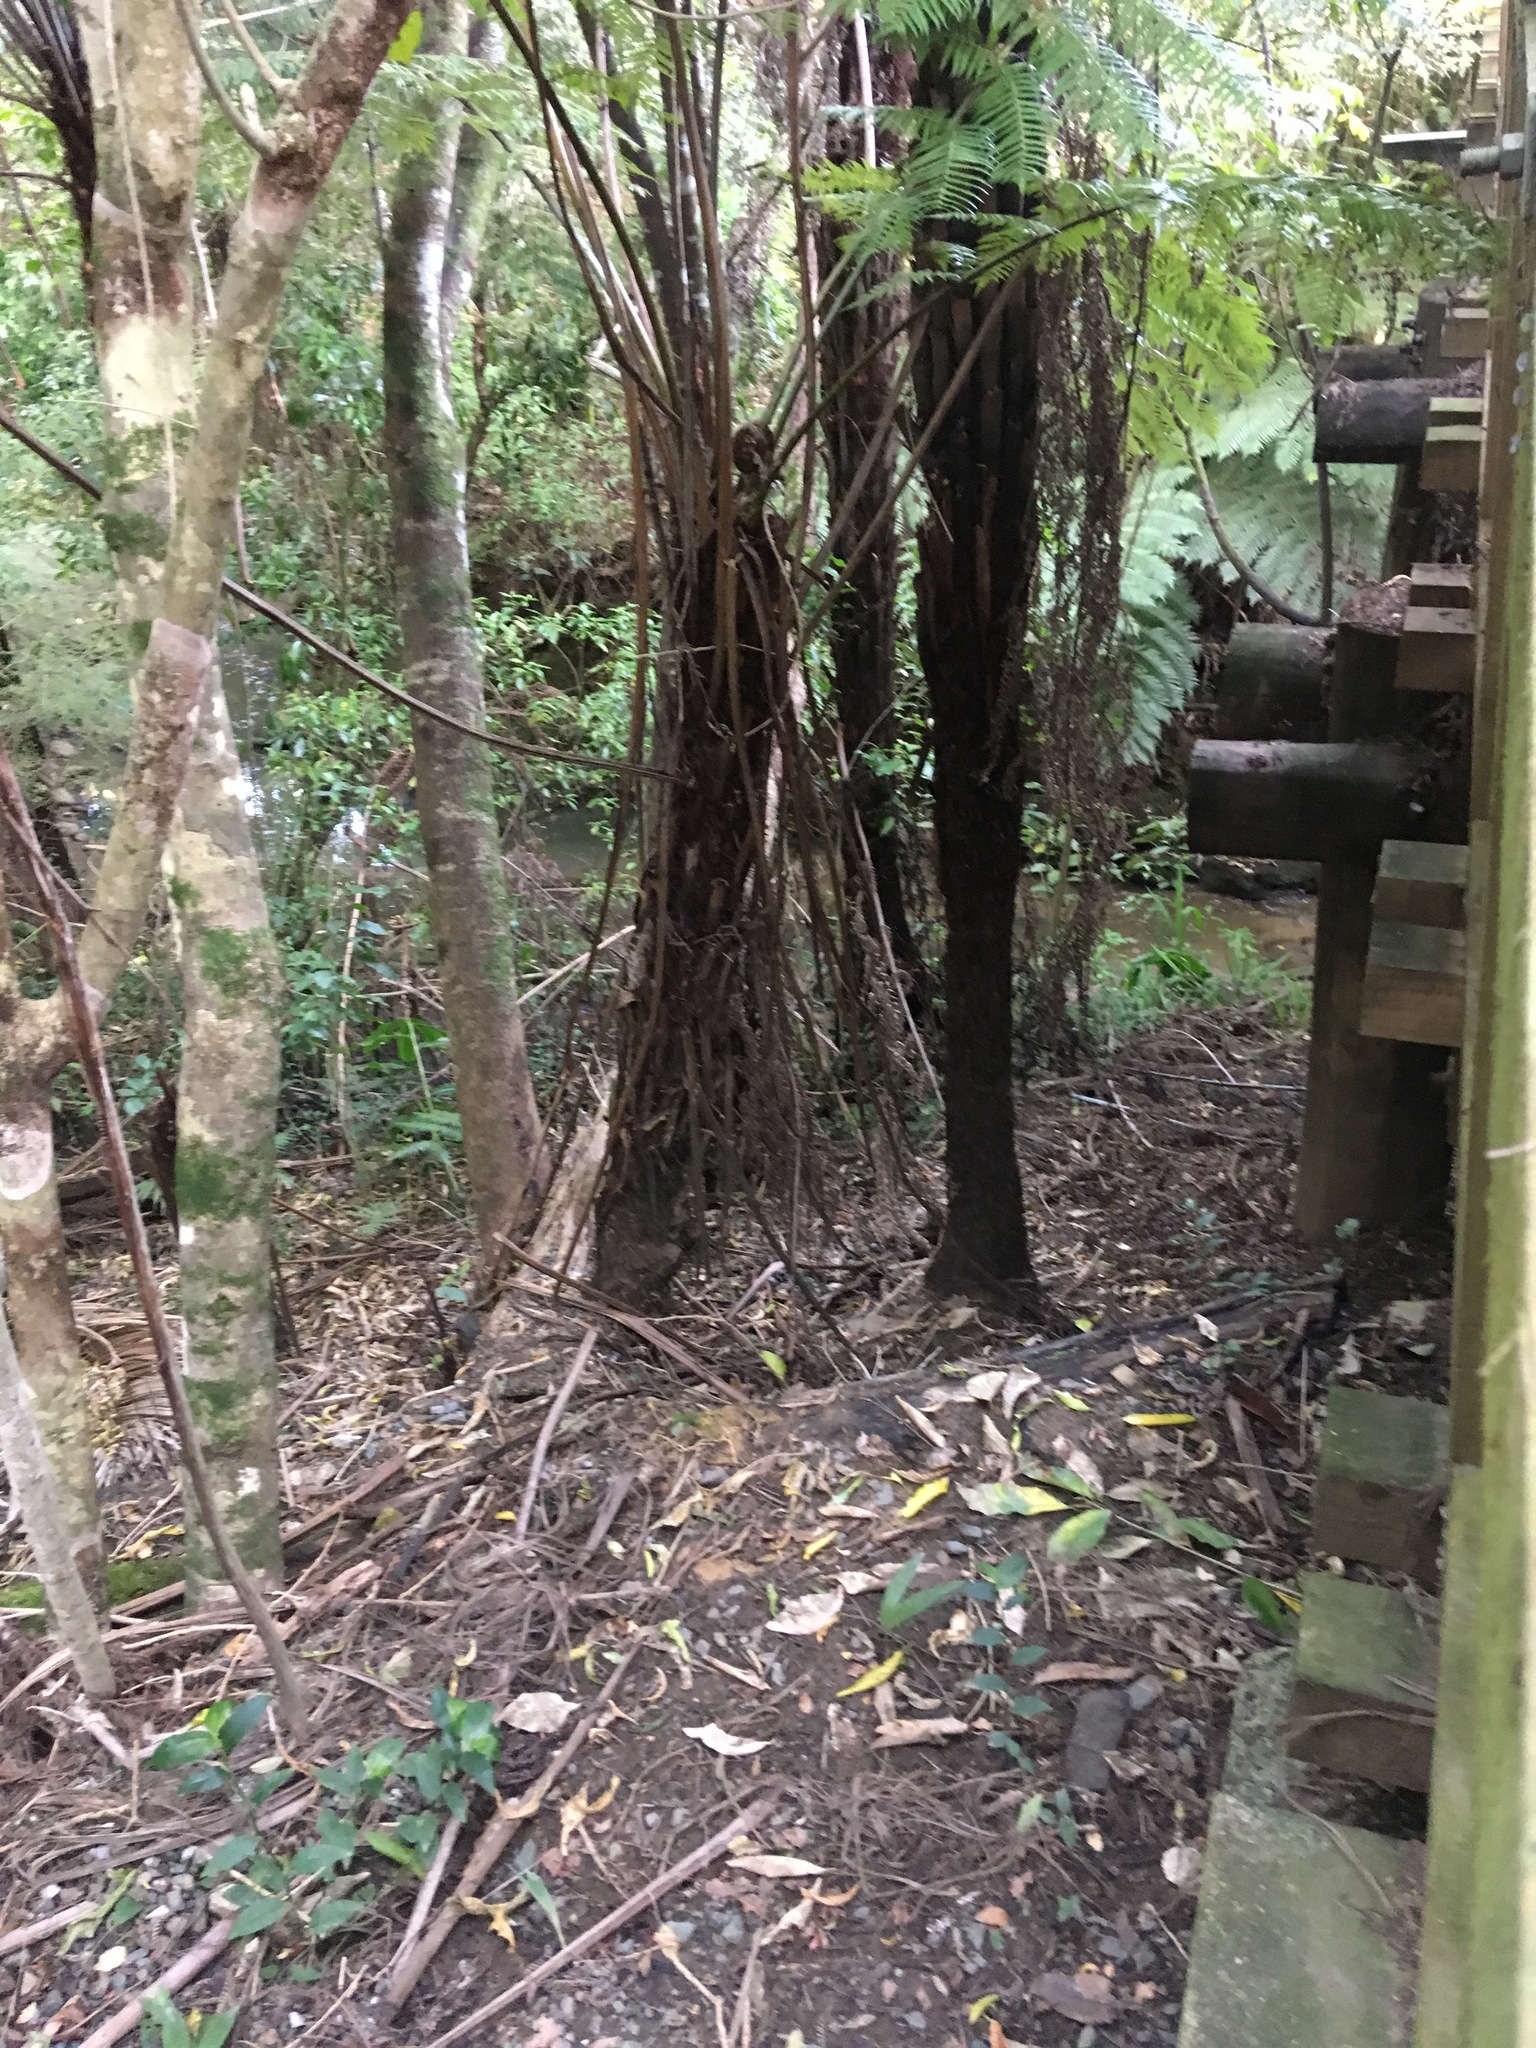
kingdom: Plantae
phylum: Tracheophyta
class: Polypodiopsida
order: Cyatheales
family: Cyatheaceae
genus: Alsophila
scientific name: Alsophila dealbata
